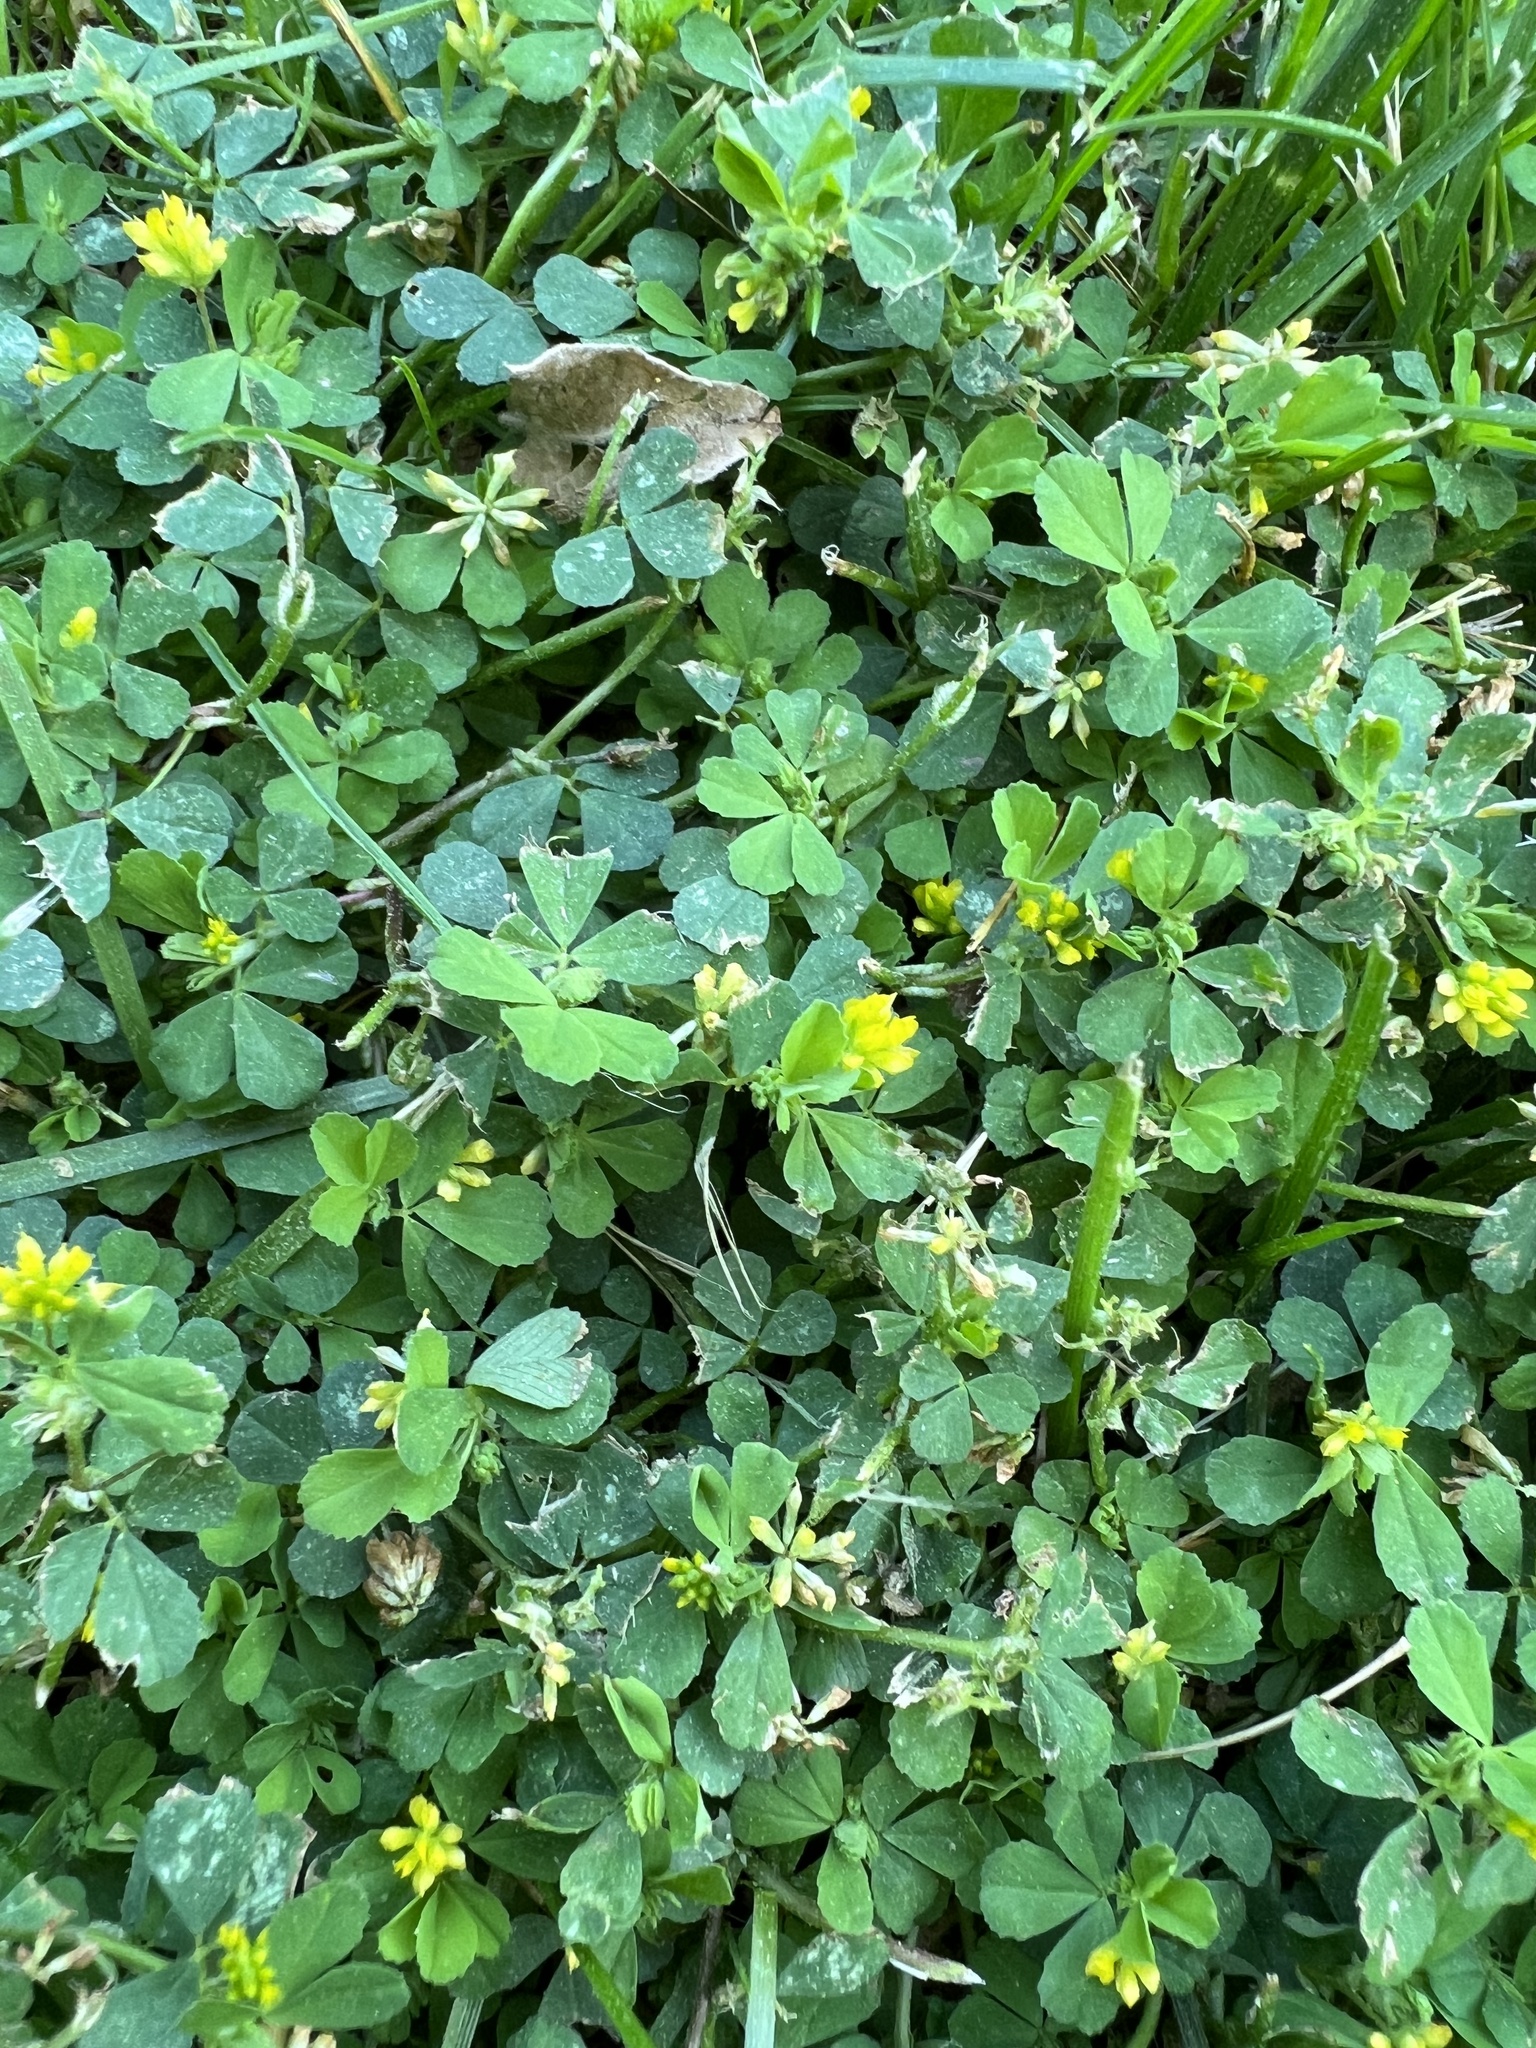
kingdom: Plantae
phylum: Tracheophyta
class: Magnoliopsida
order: Fabales
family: Fabaceae
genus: Trifolium
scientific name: Trifolium dubium
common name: Suckling clover
